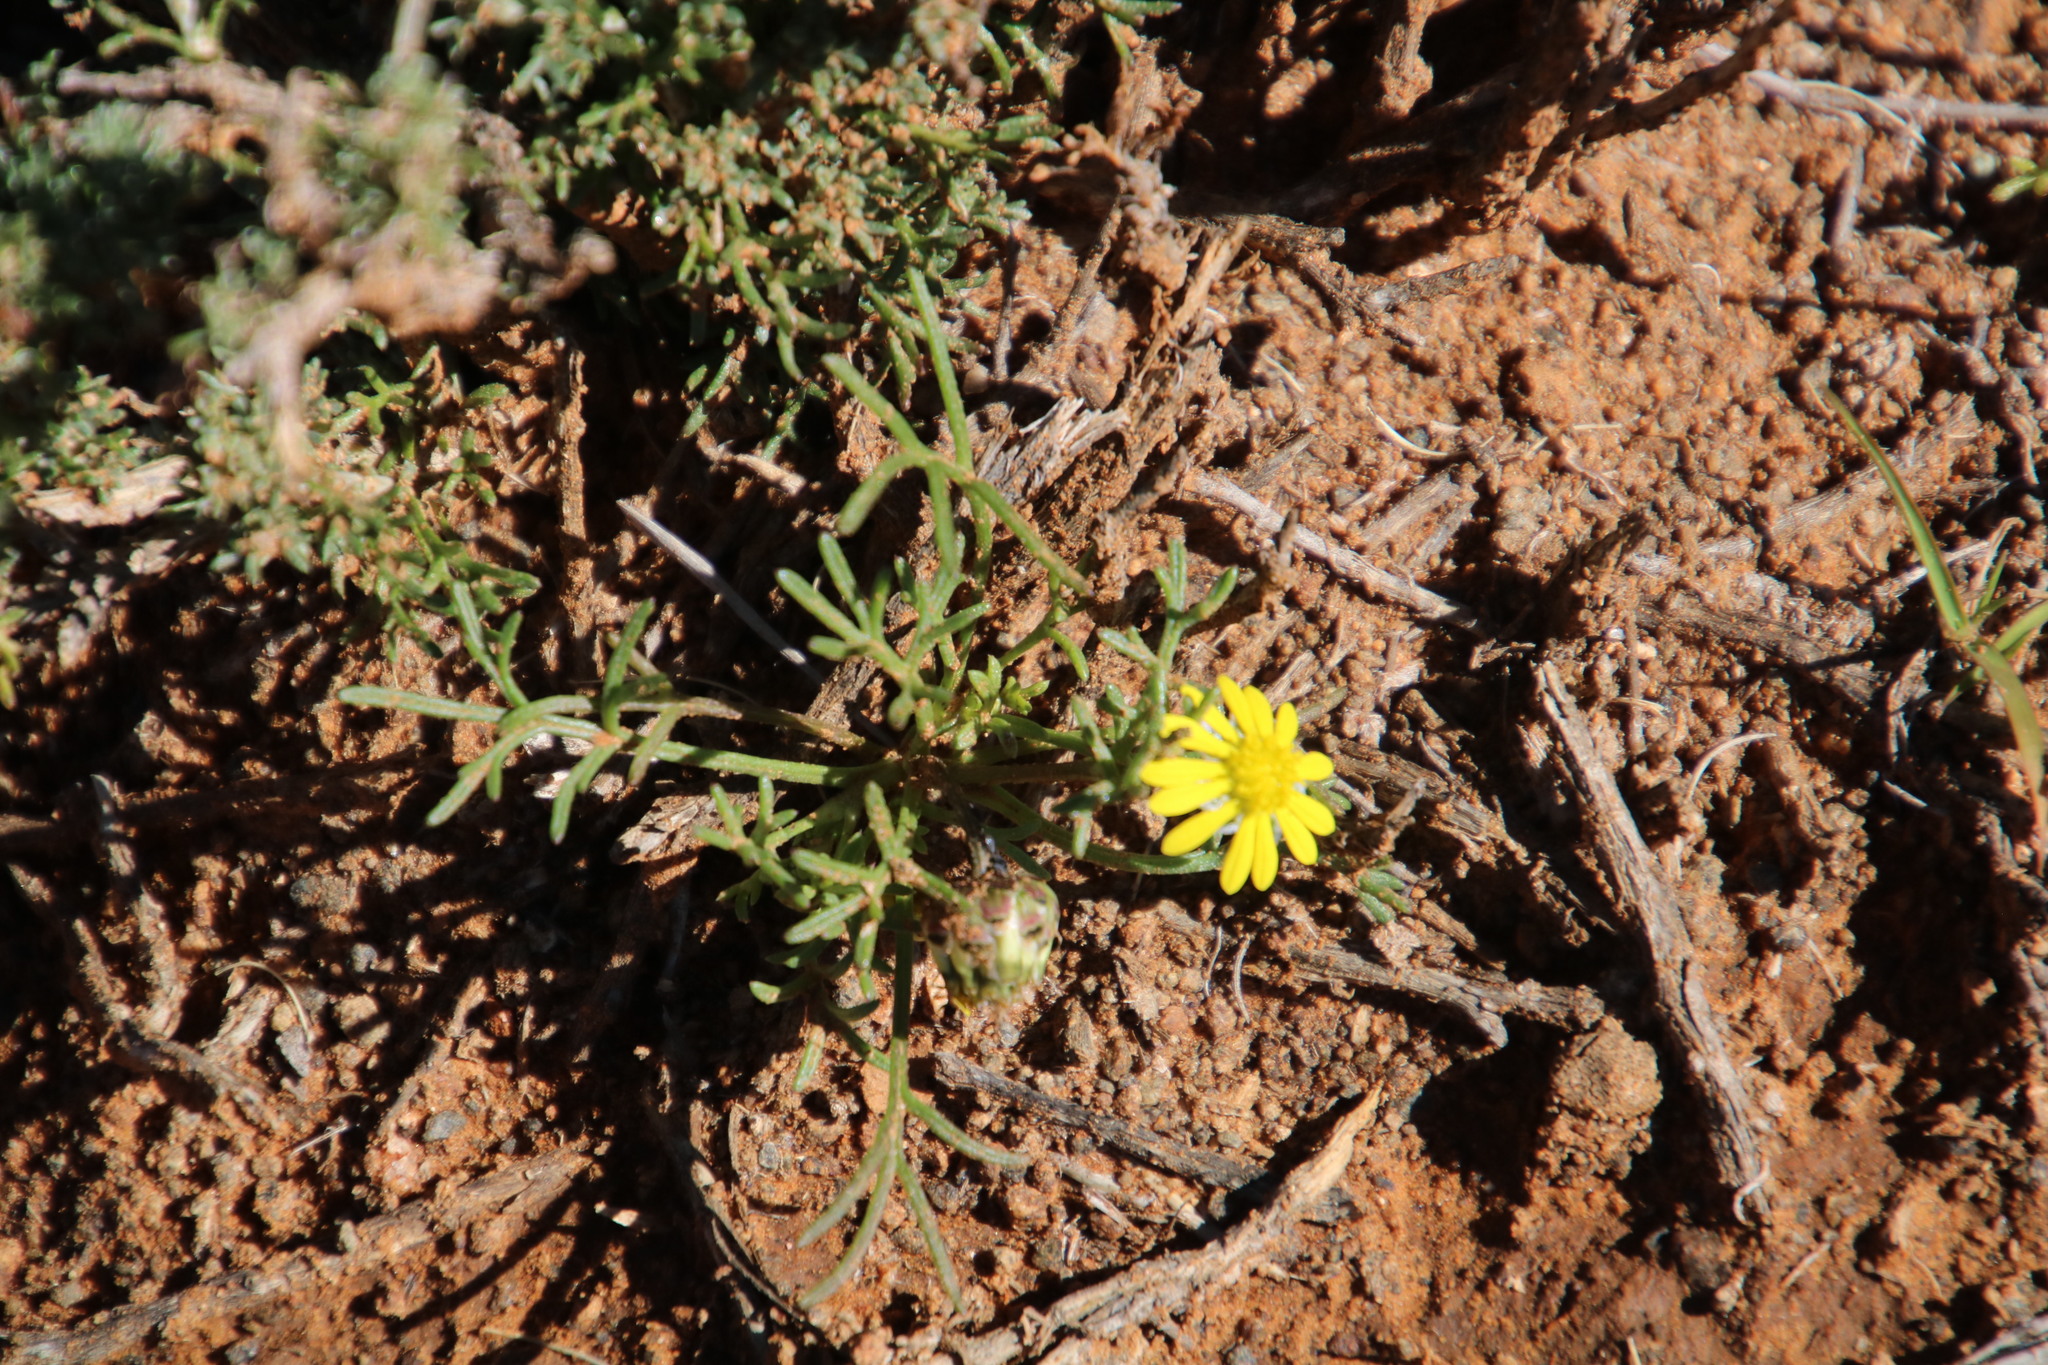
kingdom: Plantae
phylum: Tracheophyta
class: Magnoliopsida
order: Asterales
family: Asteraceae
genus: Ursinia
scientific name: Ursinia nana
